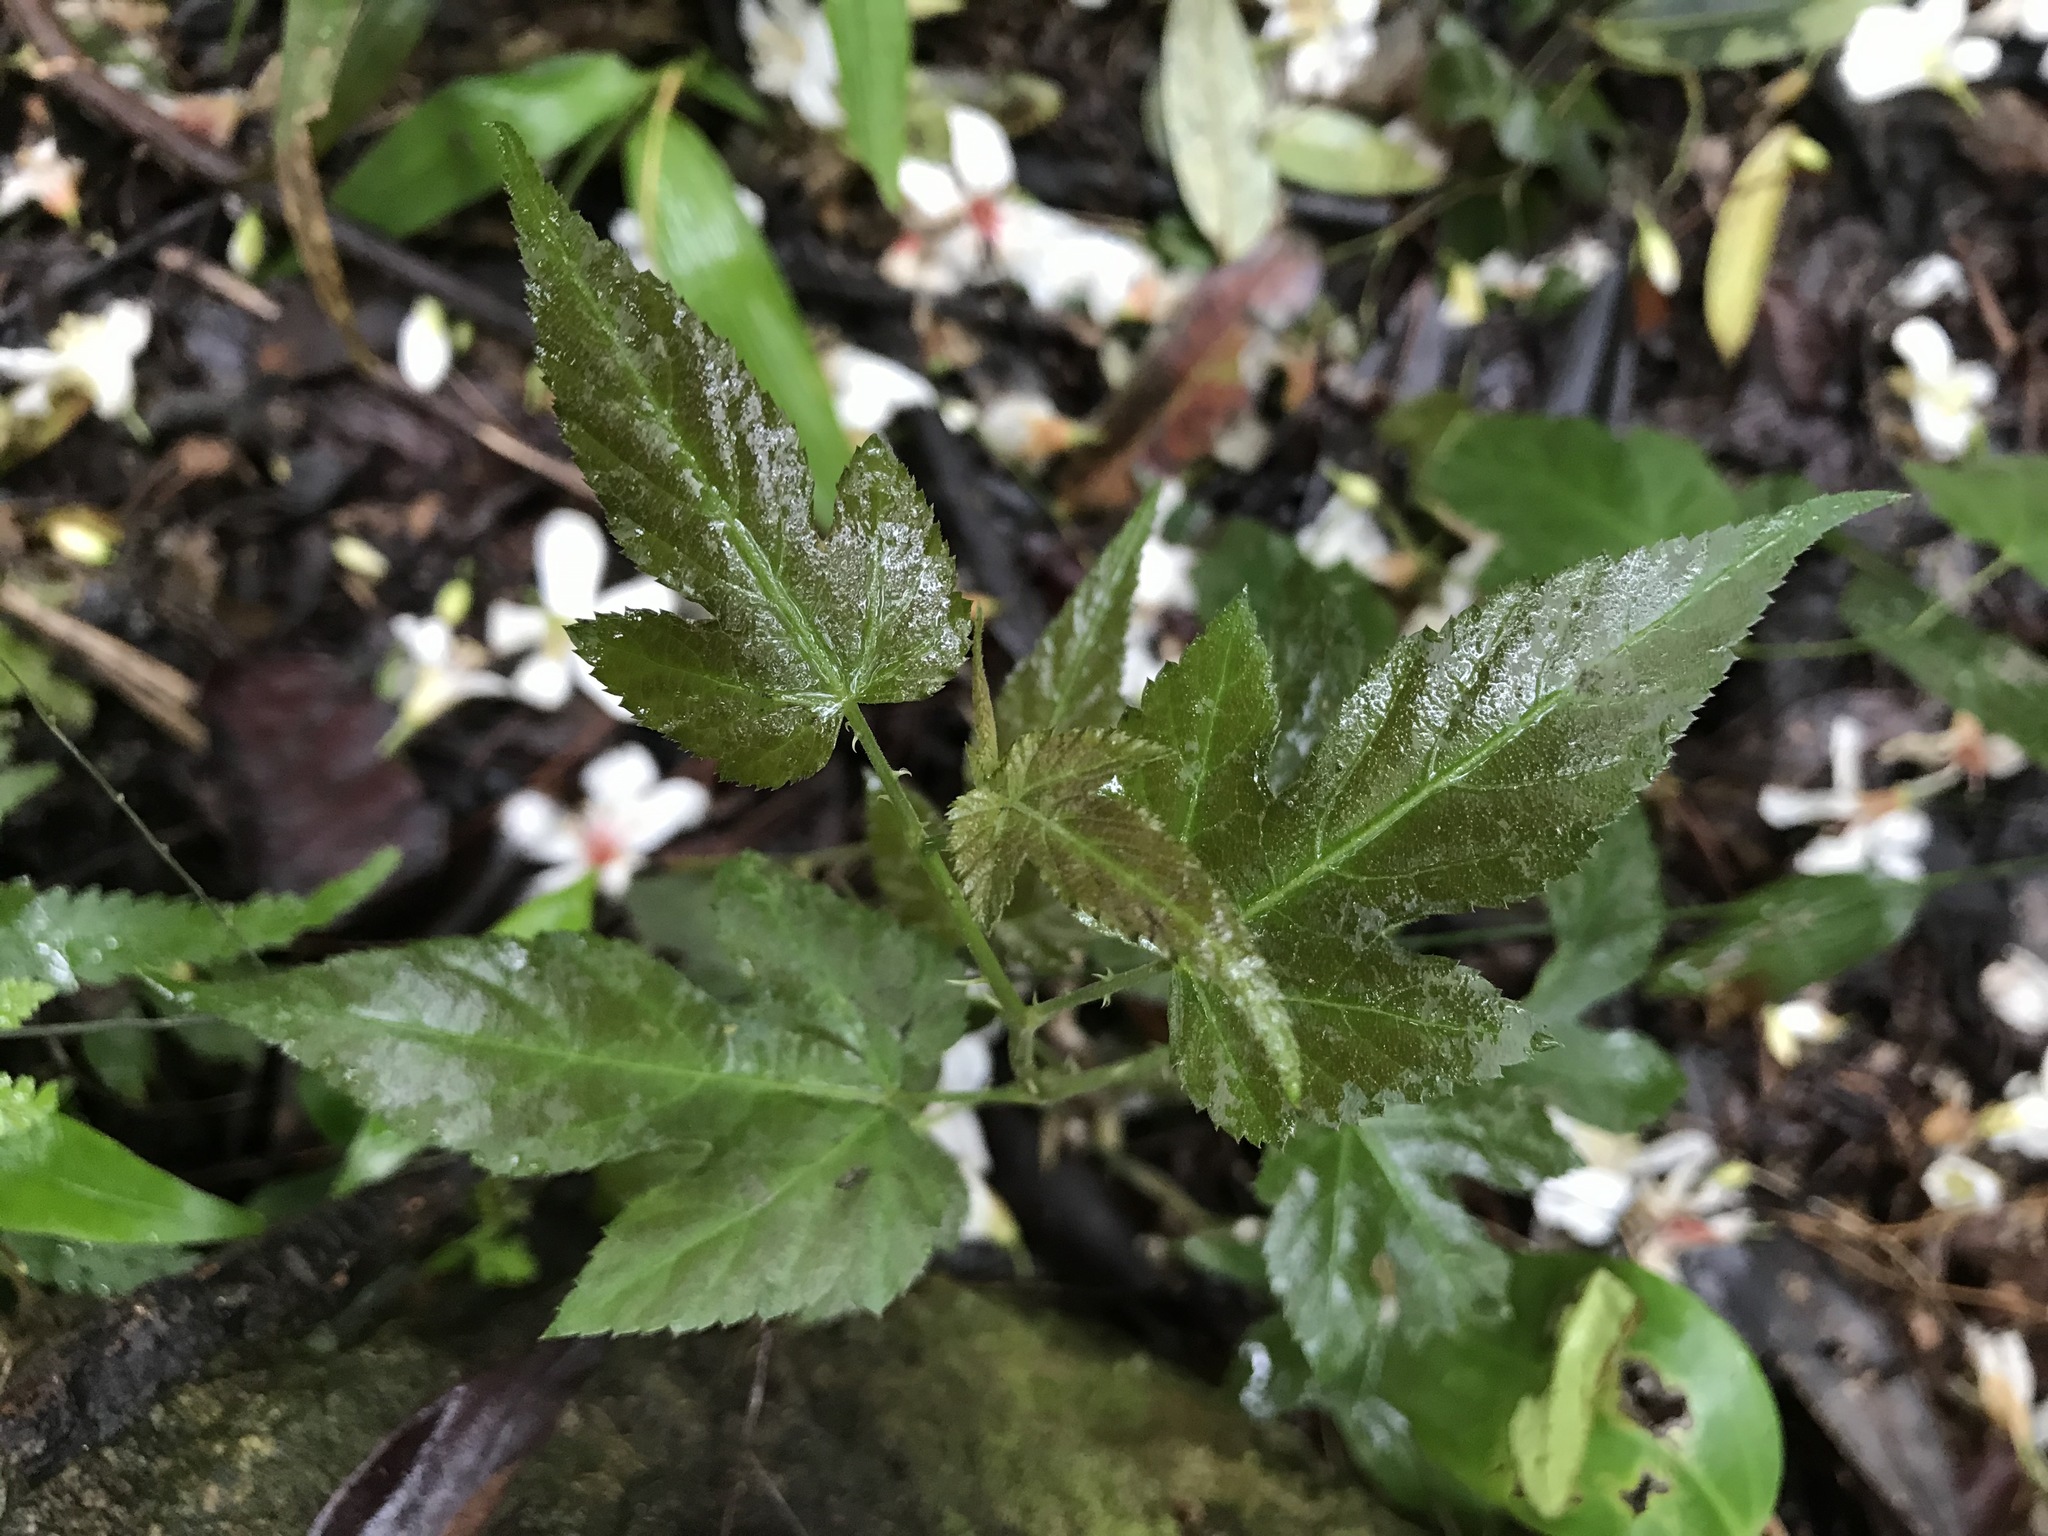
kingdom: Plantae
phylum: Tracheophyta
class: Magnoliopsida
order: Vitales
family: Vitaceae
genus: Nekemias
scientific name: Nekemias cantoniensis
